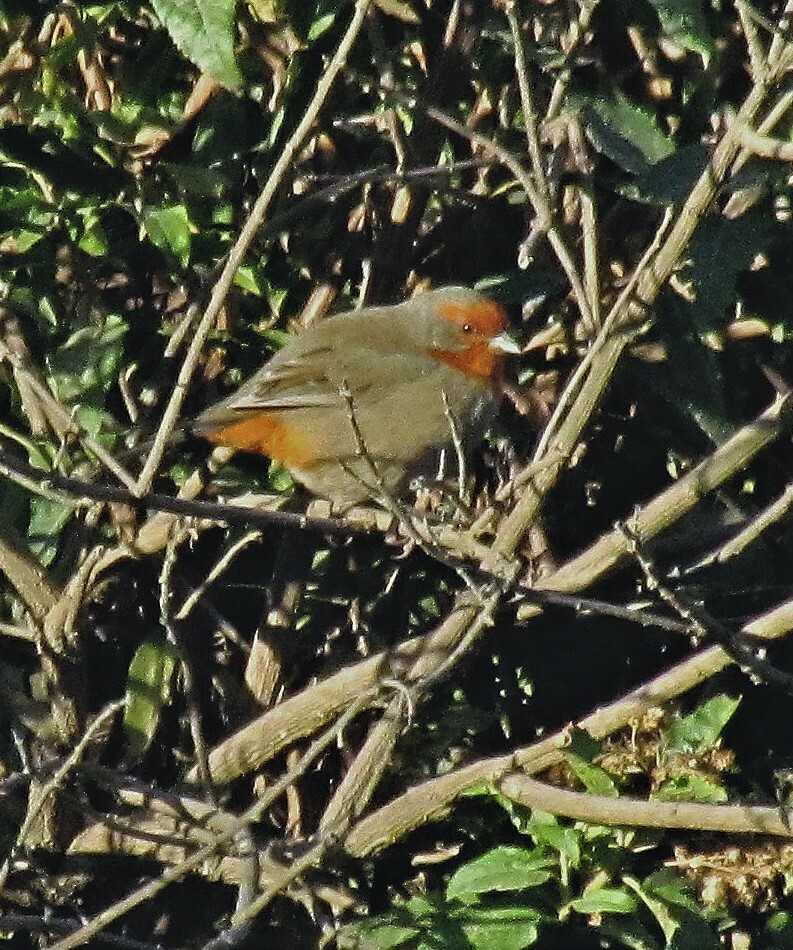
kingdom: Animalia
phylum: Chordata
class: Aves
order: Passeriformes
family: Thraupidae
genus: Poospiza
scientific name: Poospiza baeri
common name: Tucuman mountain-finch
